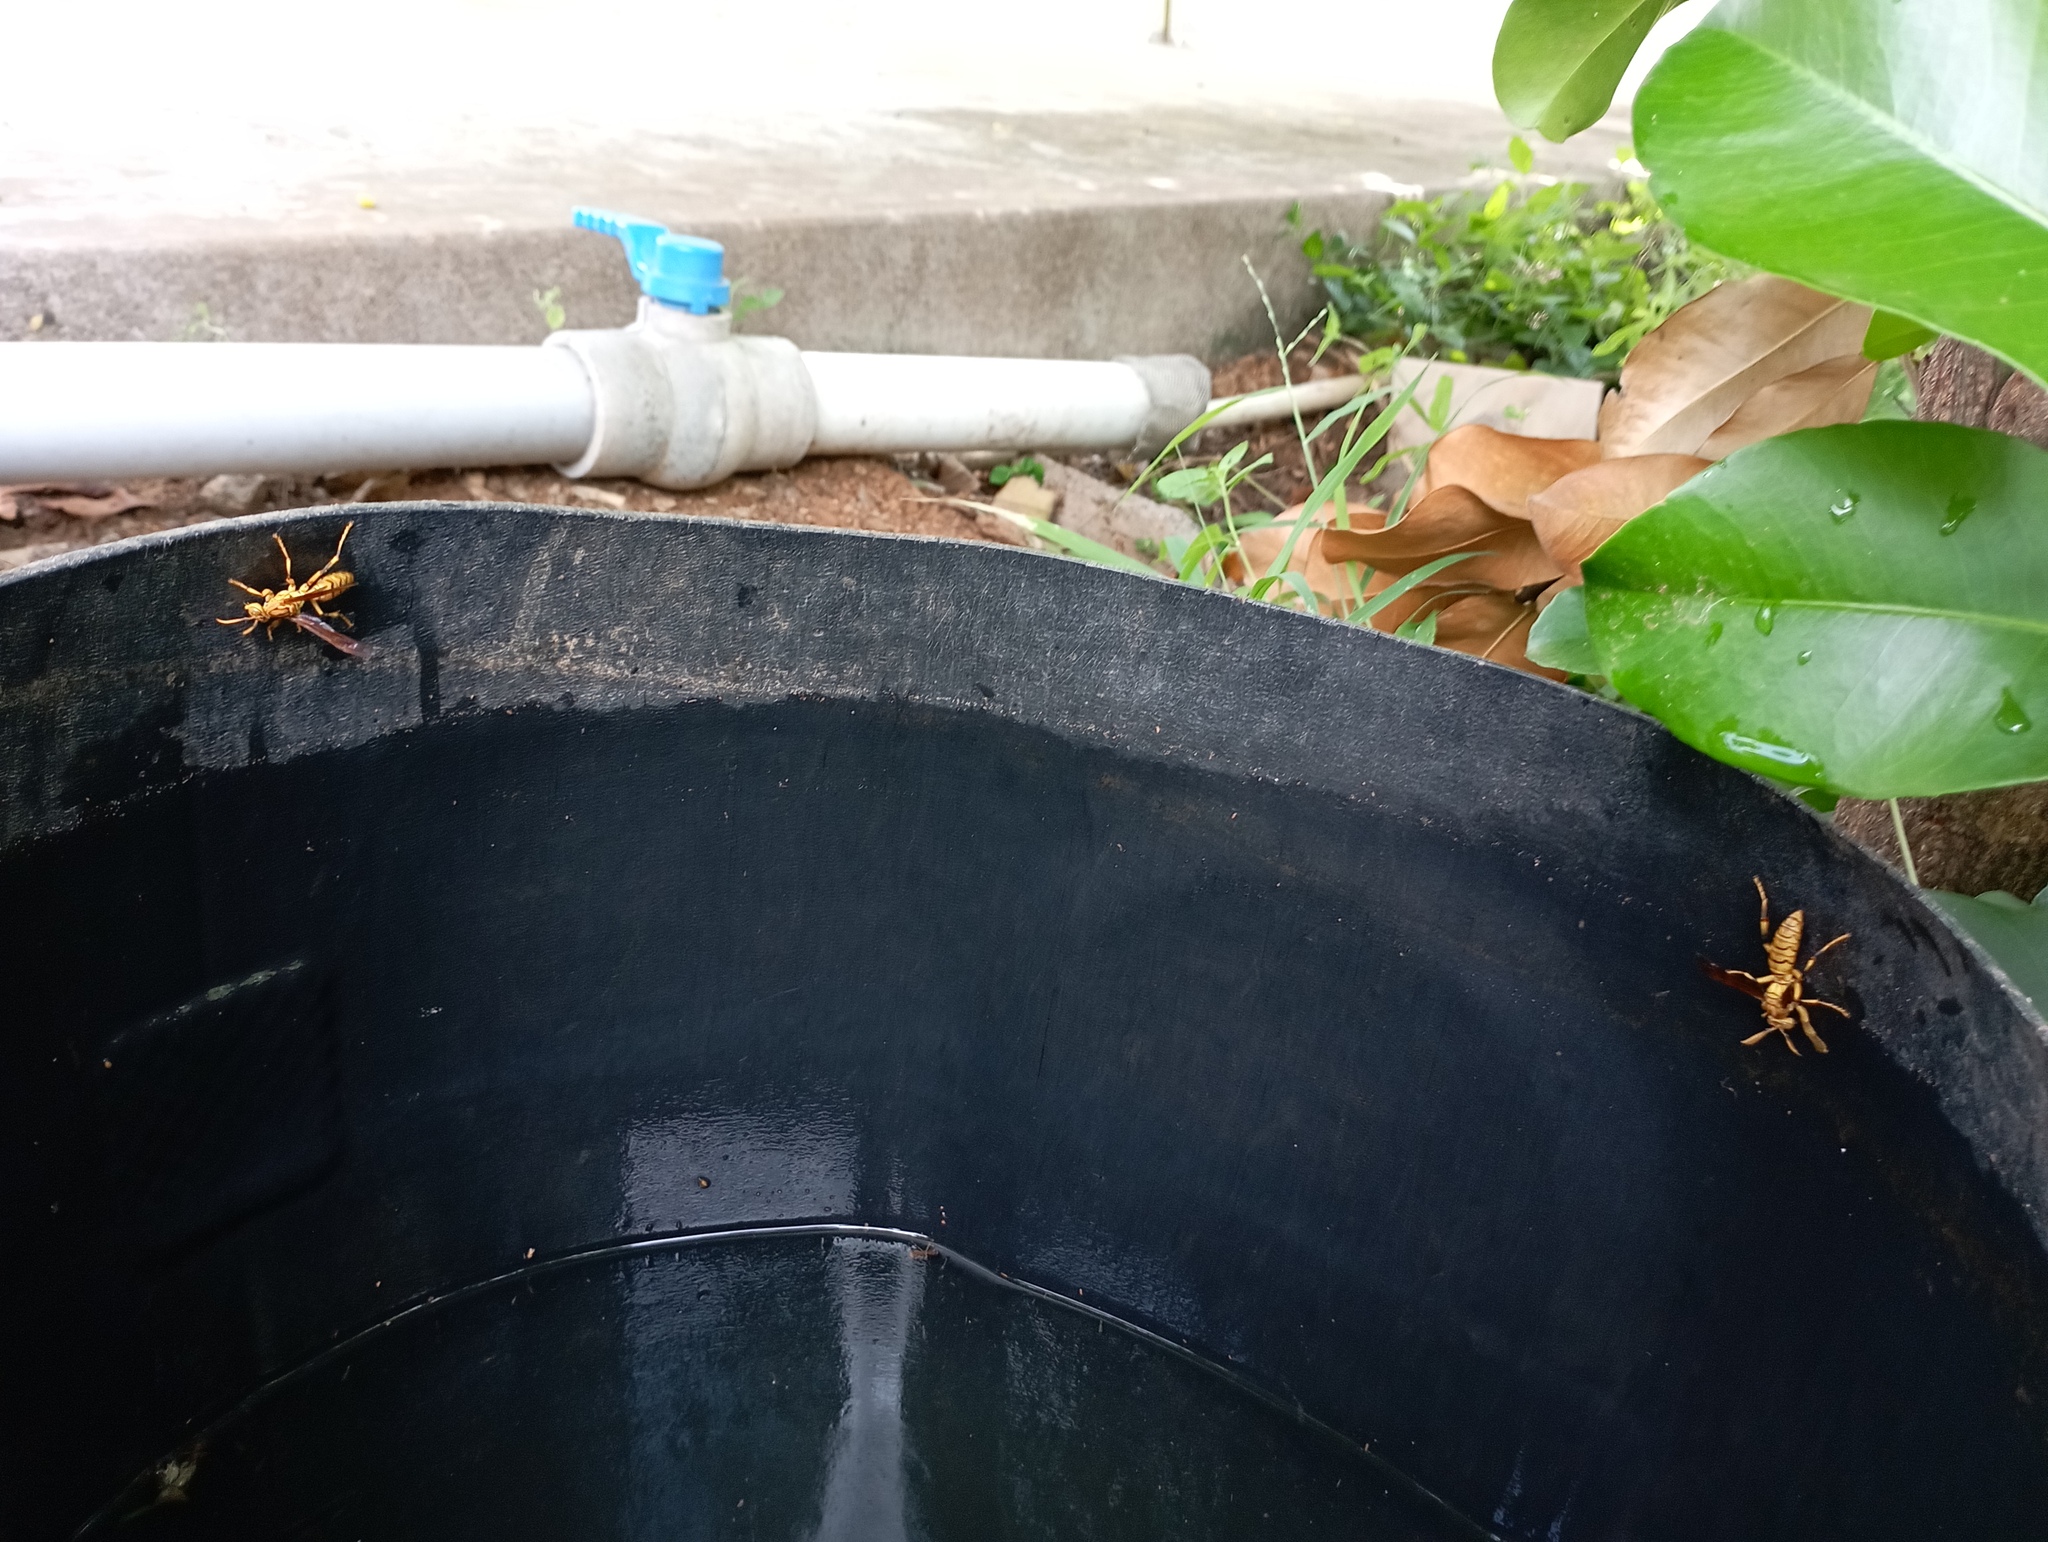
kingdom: Animalia
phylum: Arthropoda
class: Insecta
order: Hymenoptera
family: Eumenidae
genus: Polistes
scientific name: Polistes olivaceus
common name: Paper wasp
